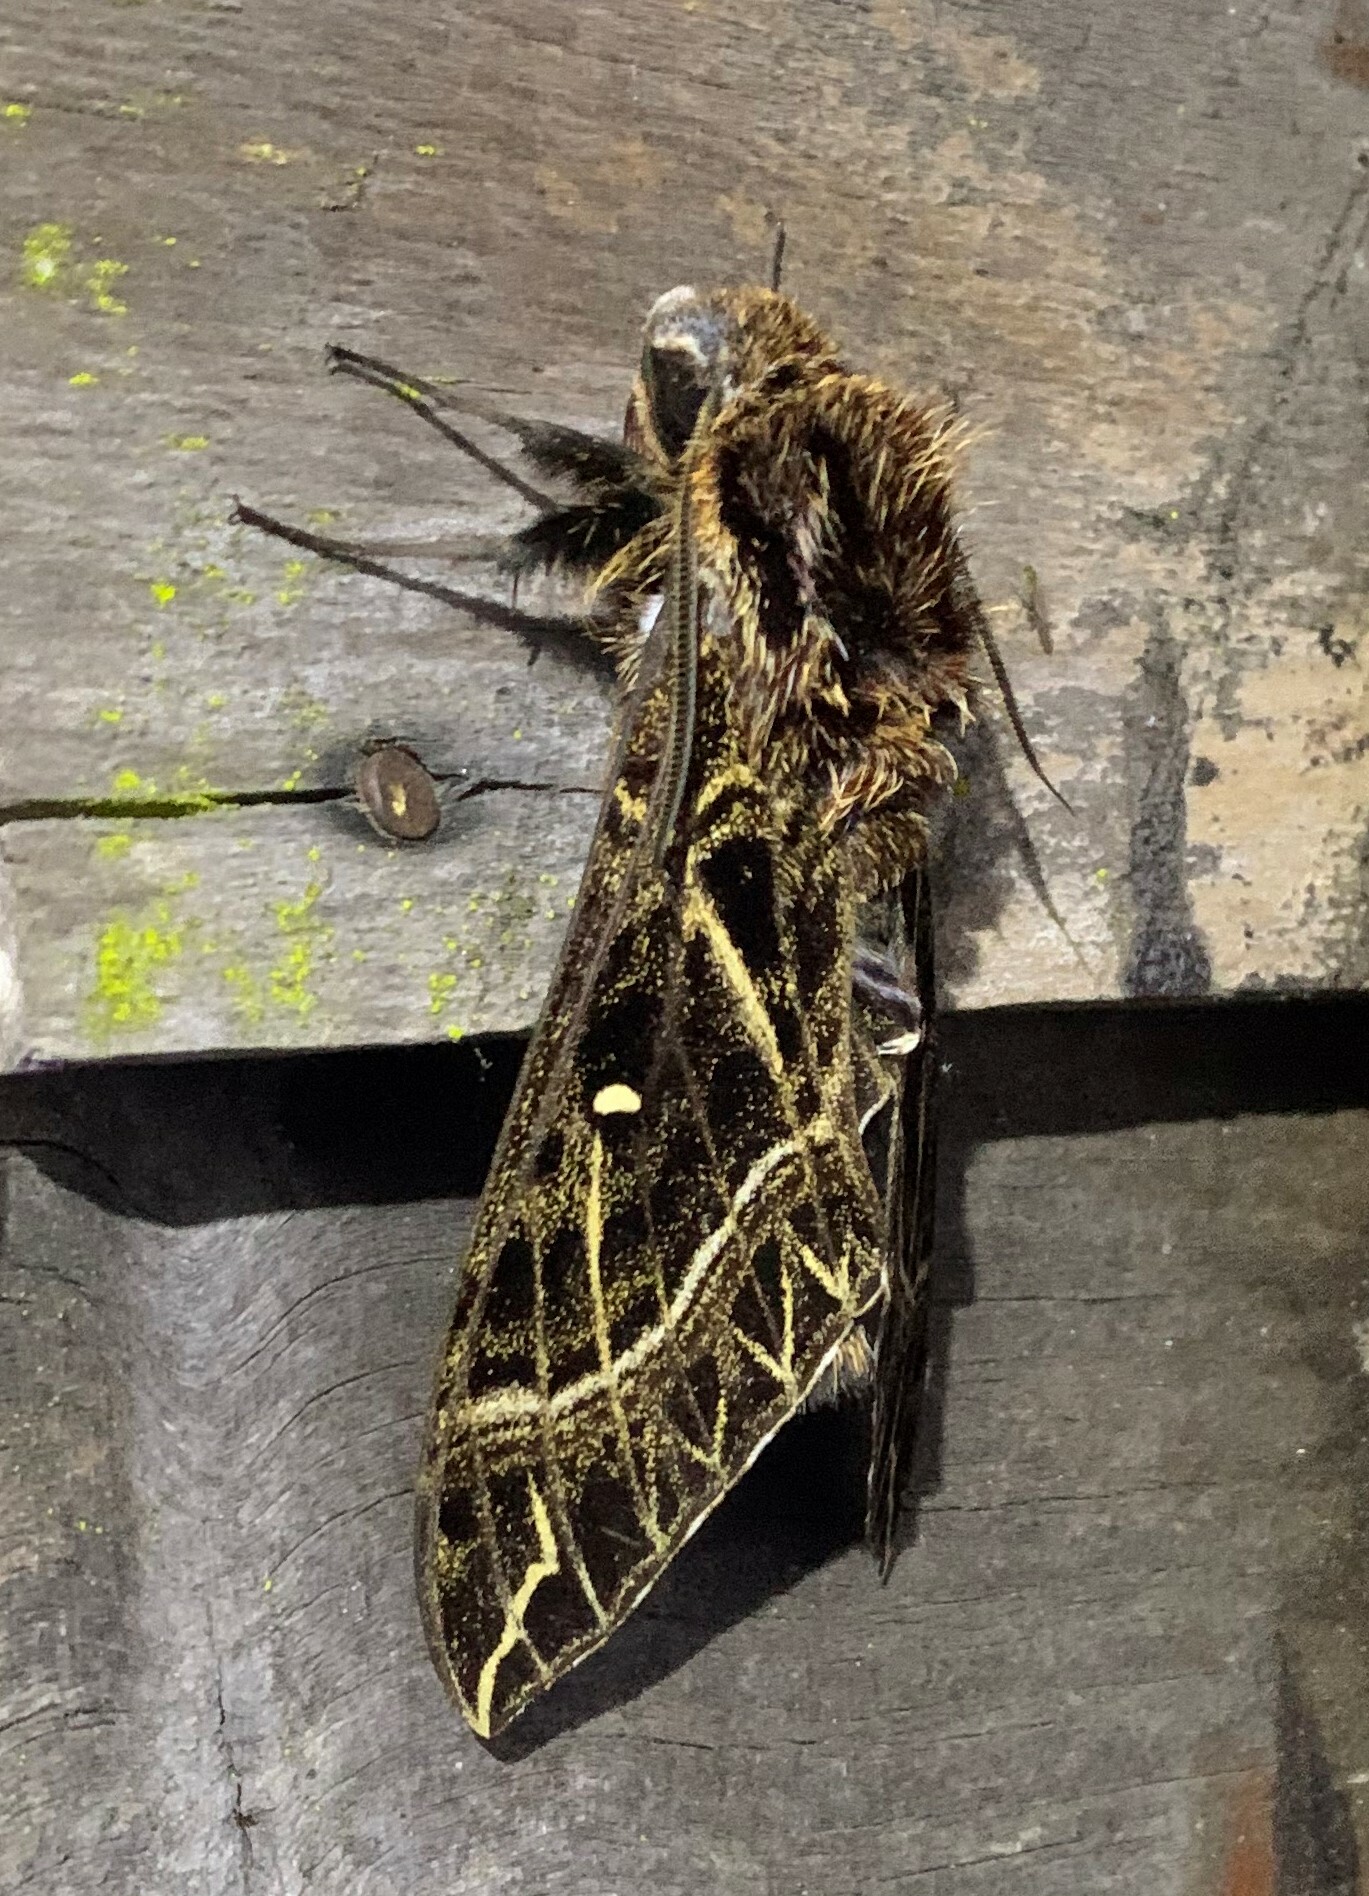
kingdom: Animalia
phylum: Arthropoda
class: Insecta
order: Lepidoptera
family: Sphingidae
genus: Euryglottis
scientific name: Euryglottis aper
